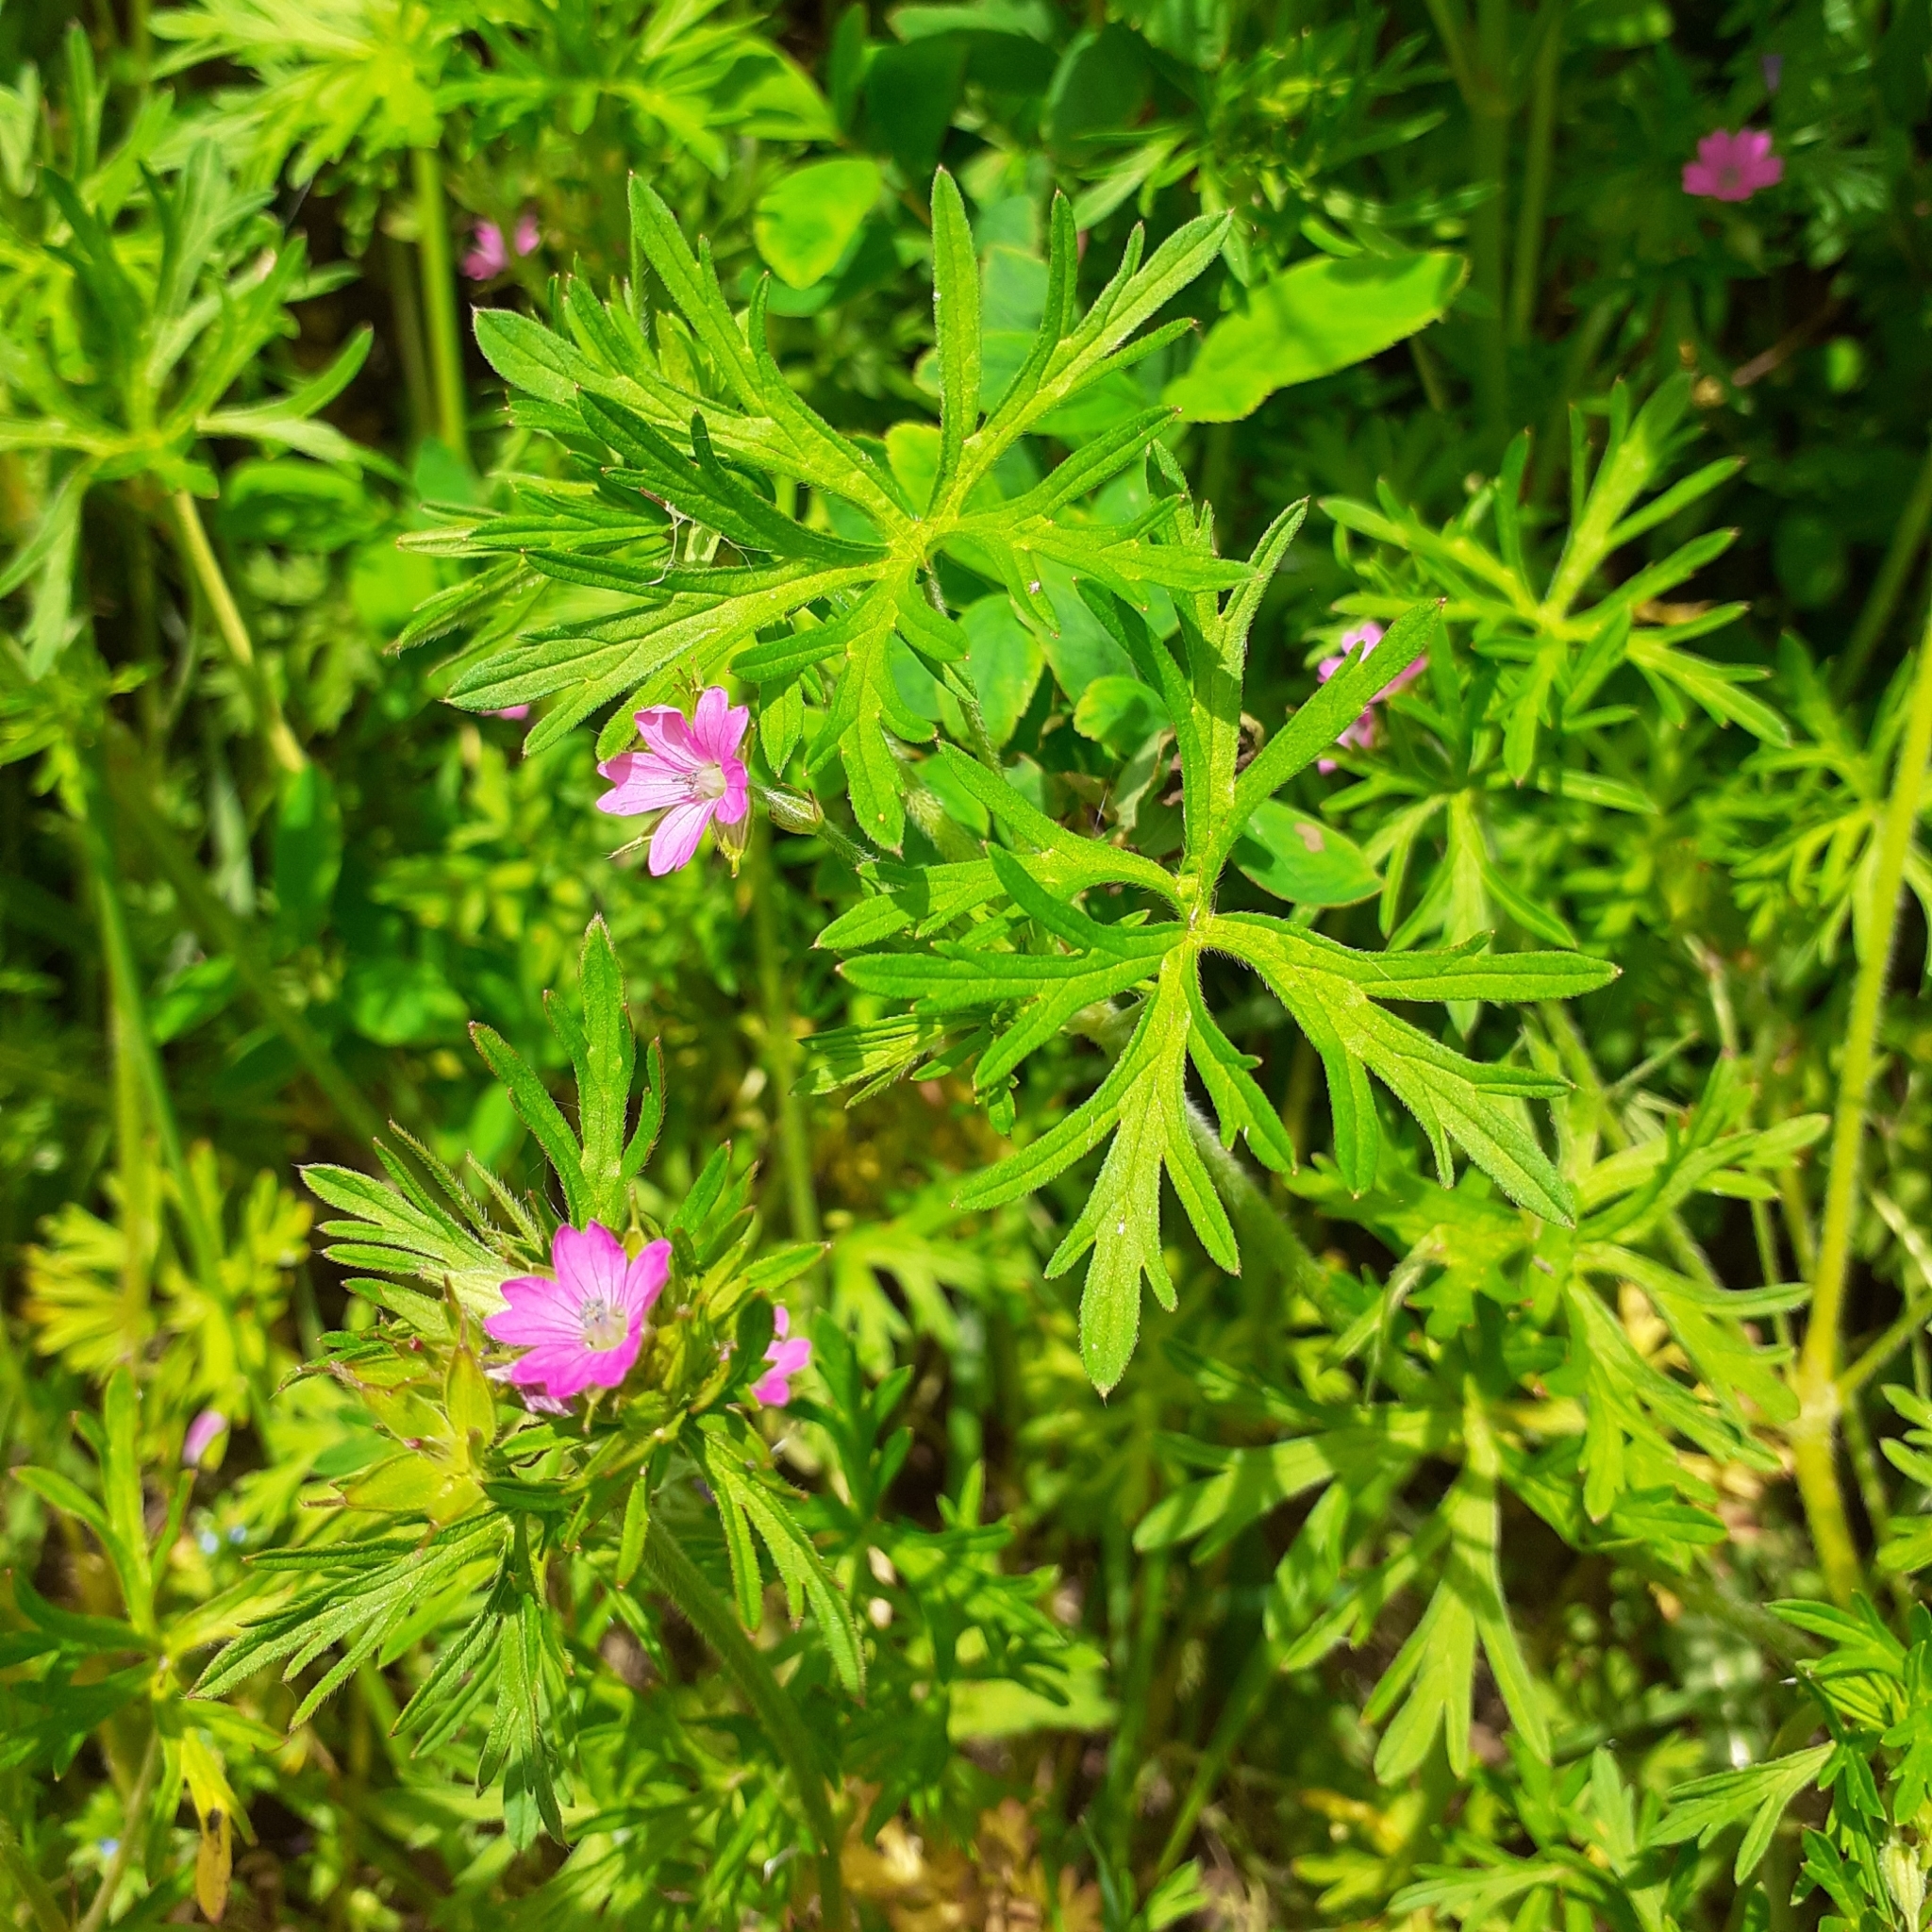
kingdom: Plantae
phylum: Tracheophyta
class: Magnoliopsida
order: Geraniales
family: Geraniaceae
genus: Geranium
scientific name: Geranium dissectum
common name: Cut-leaved crane's-bill
